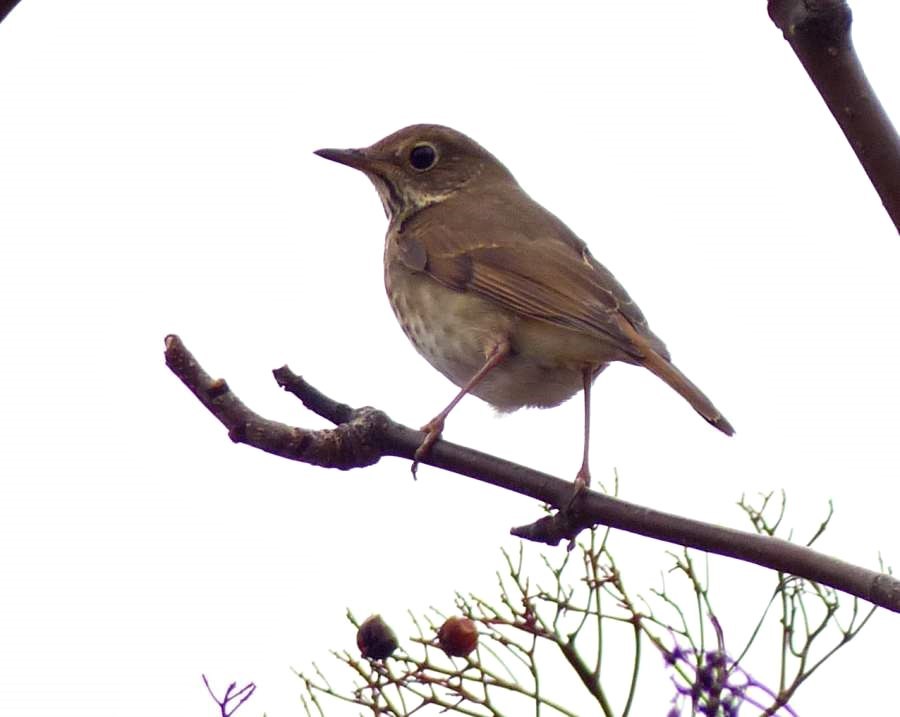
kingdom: Animalia
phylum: Chordata
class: Aves
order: Passeriformes
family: Turdidae
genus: Catharus
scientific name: Catharus guttatus
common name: Hermit thrush
